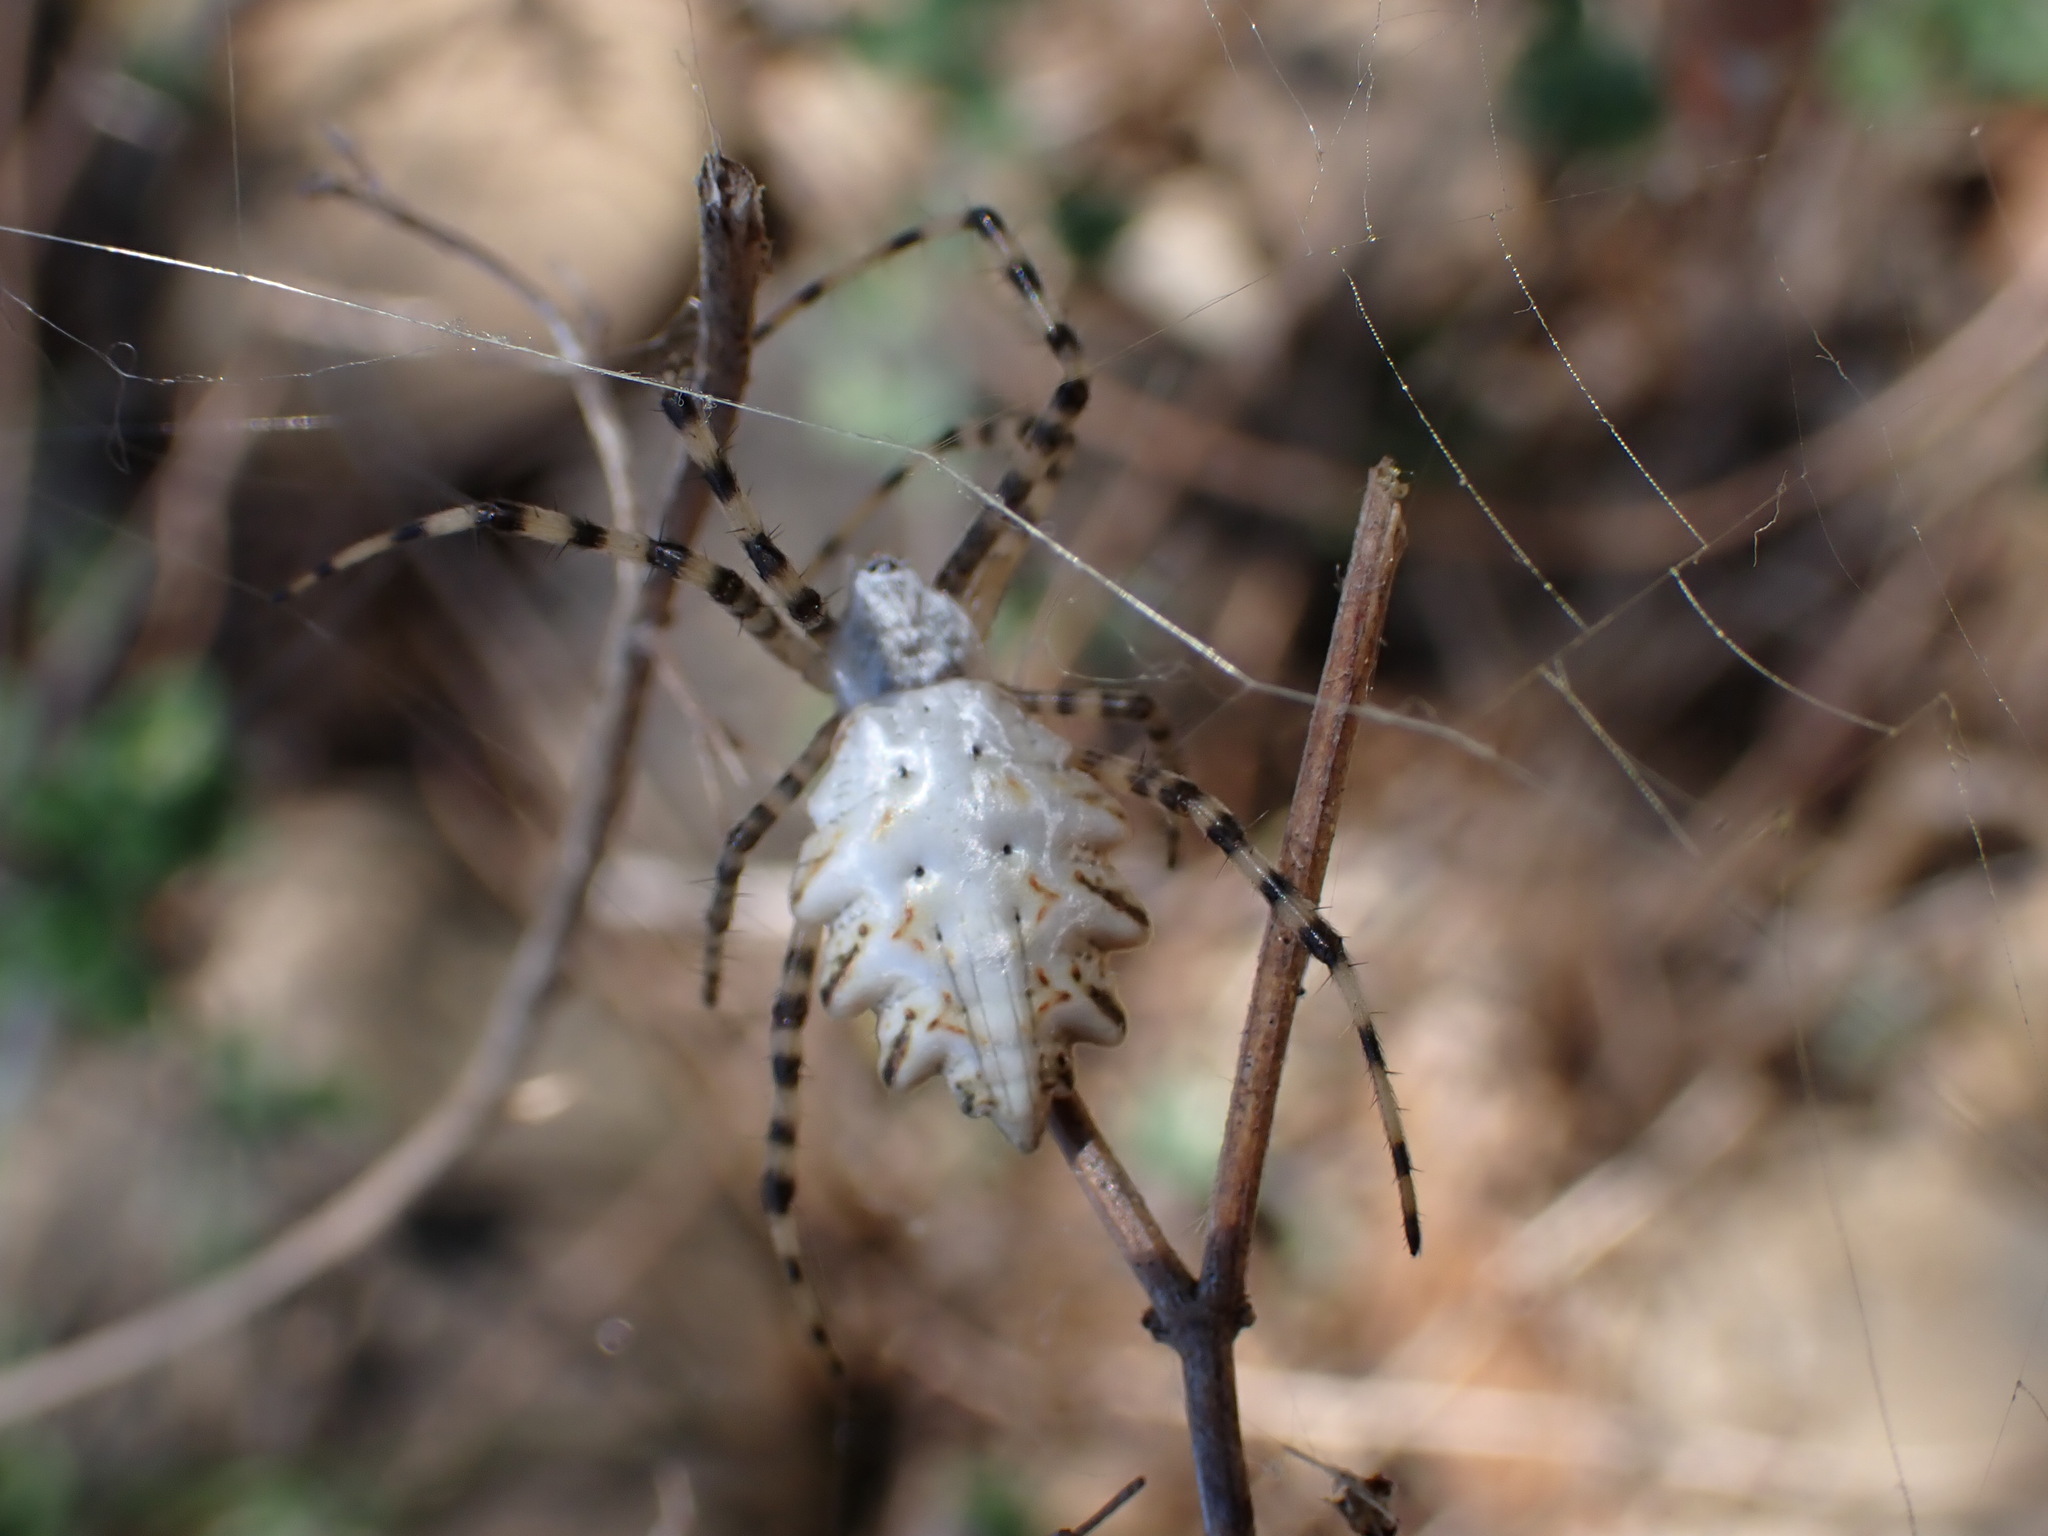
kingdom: Animalia
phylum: Arthropoda
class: Arachnida
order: Araneae
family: Araneidae
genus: Argiope
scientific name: Argiope lobata
